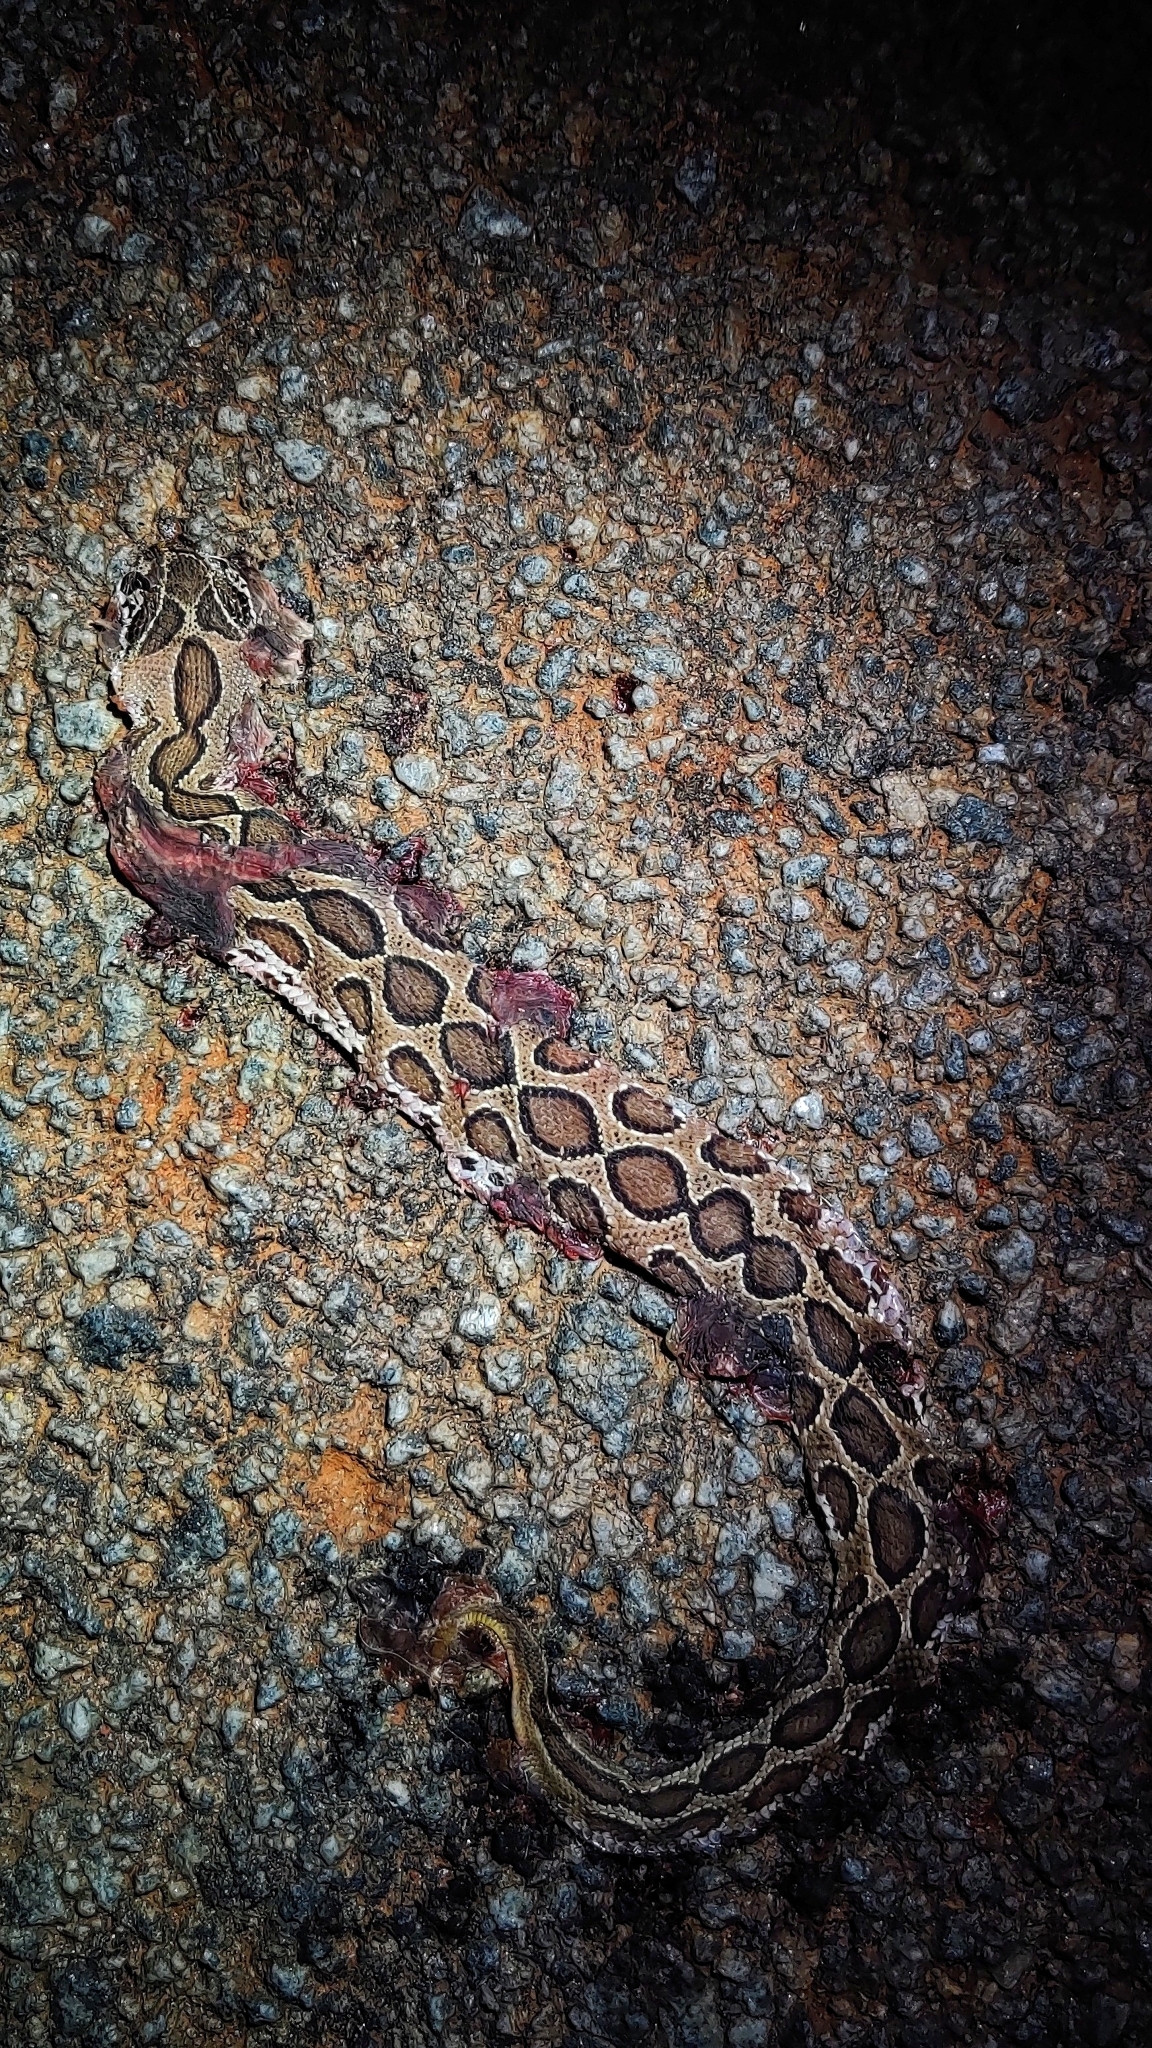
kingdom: Animalia
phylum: Chordata
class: Squamata
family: Viperidae
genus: Daboia
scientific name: Daboia russelii
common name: Western russel’s viper
